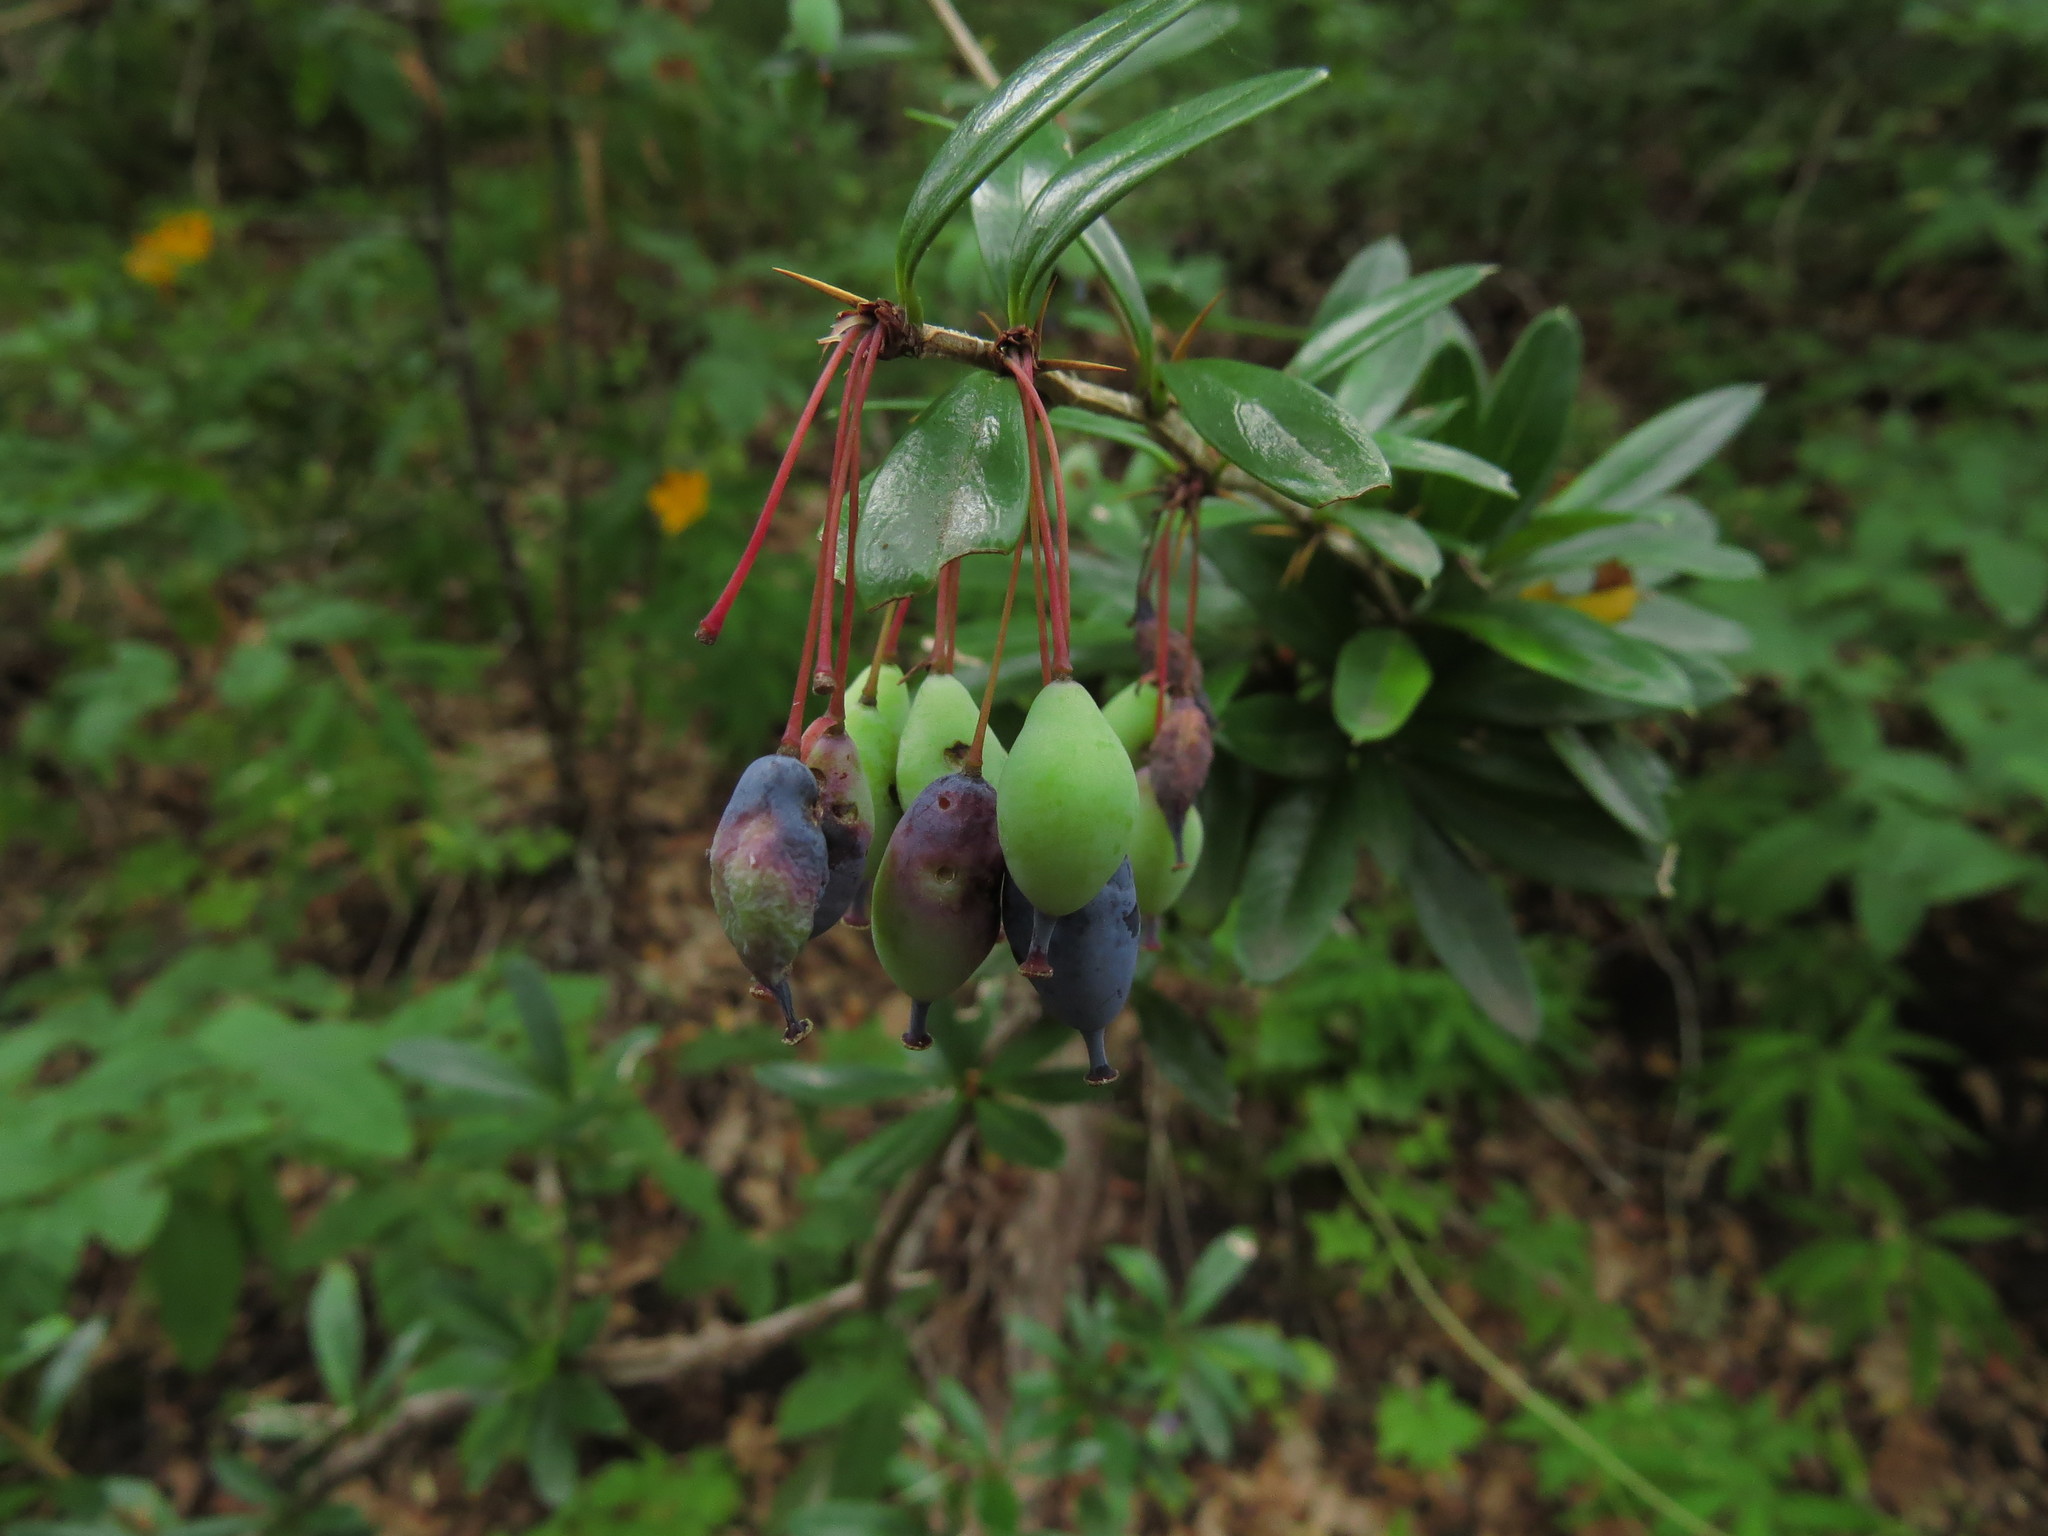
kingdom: Plantae
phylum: Tracheophyta
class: Magnoliopsida
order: Ranunculales
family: Berberidaceae
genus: Berberis
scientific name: Berberis trigona
